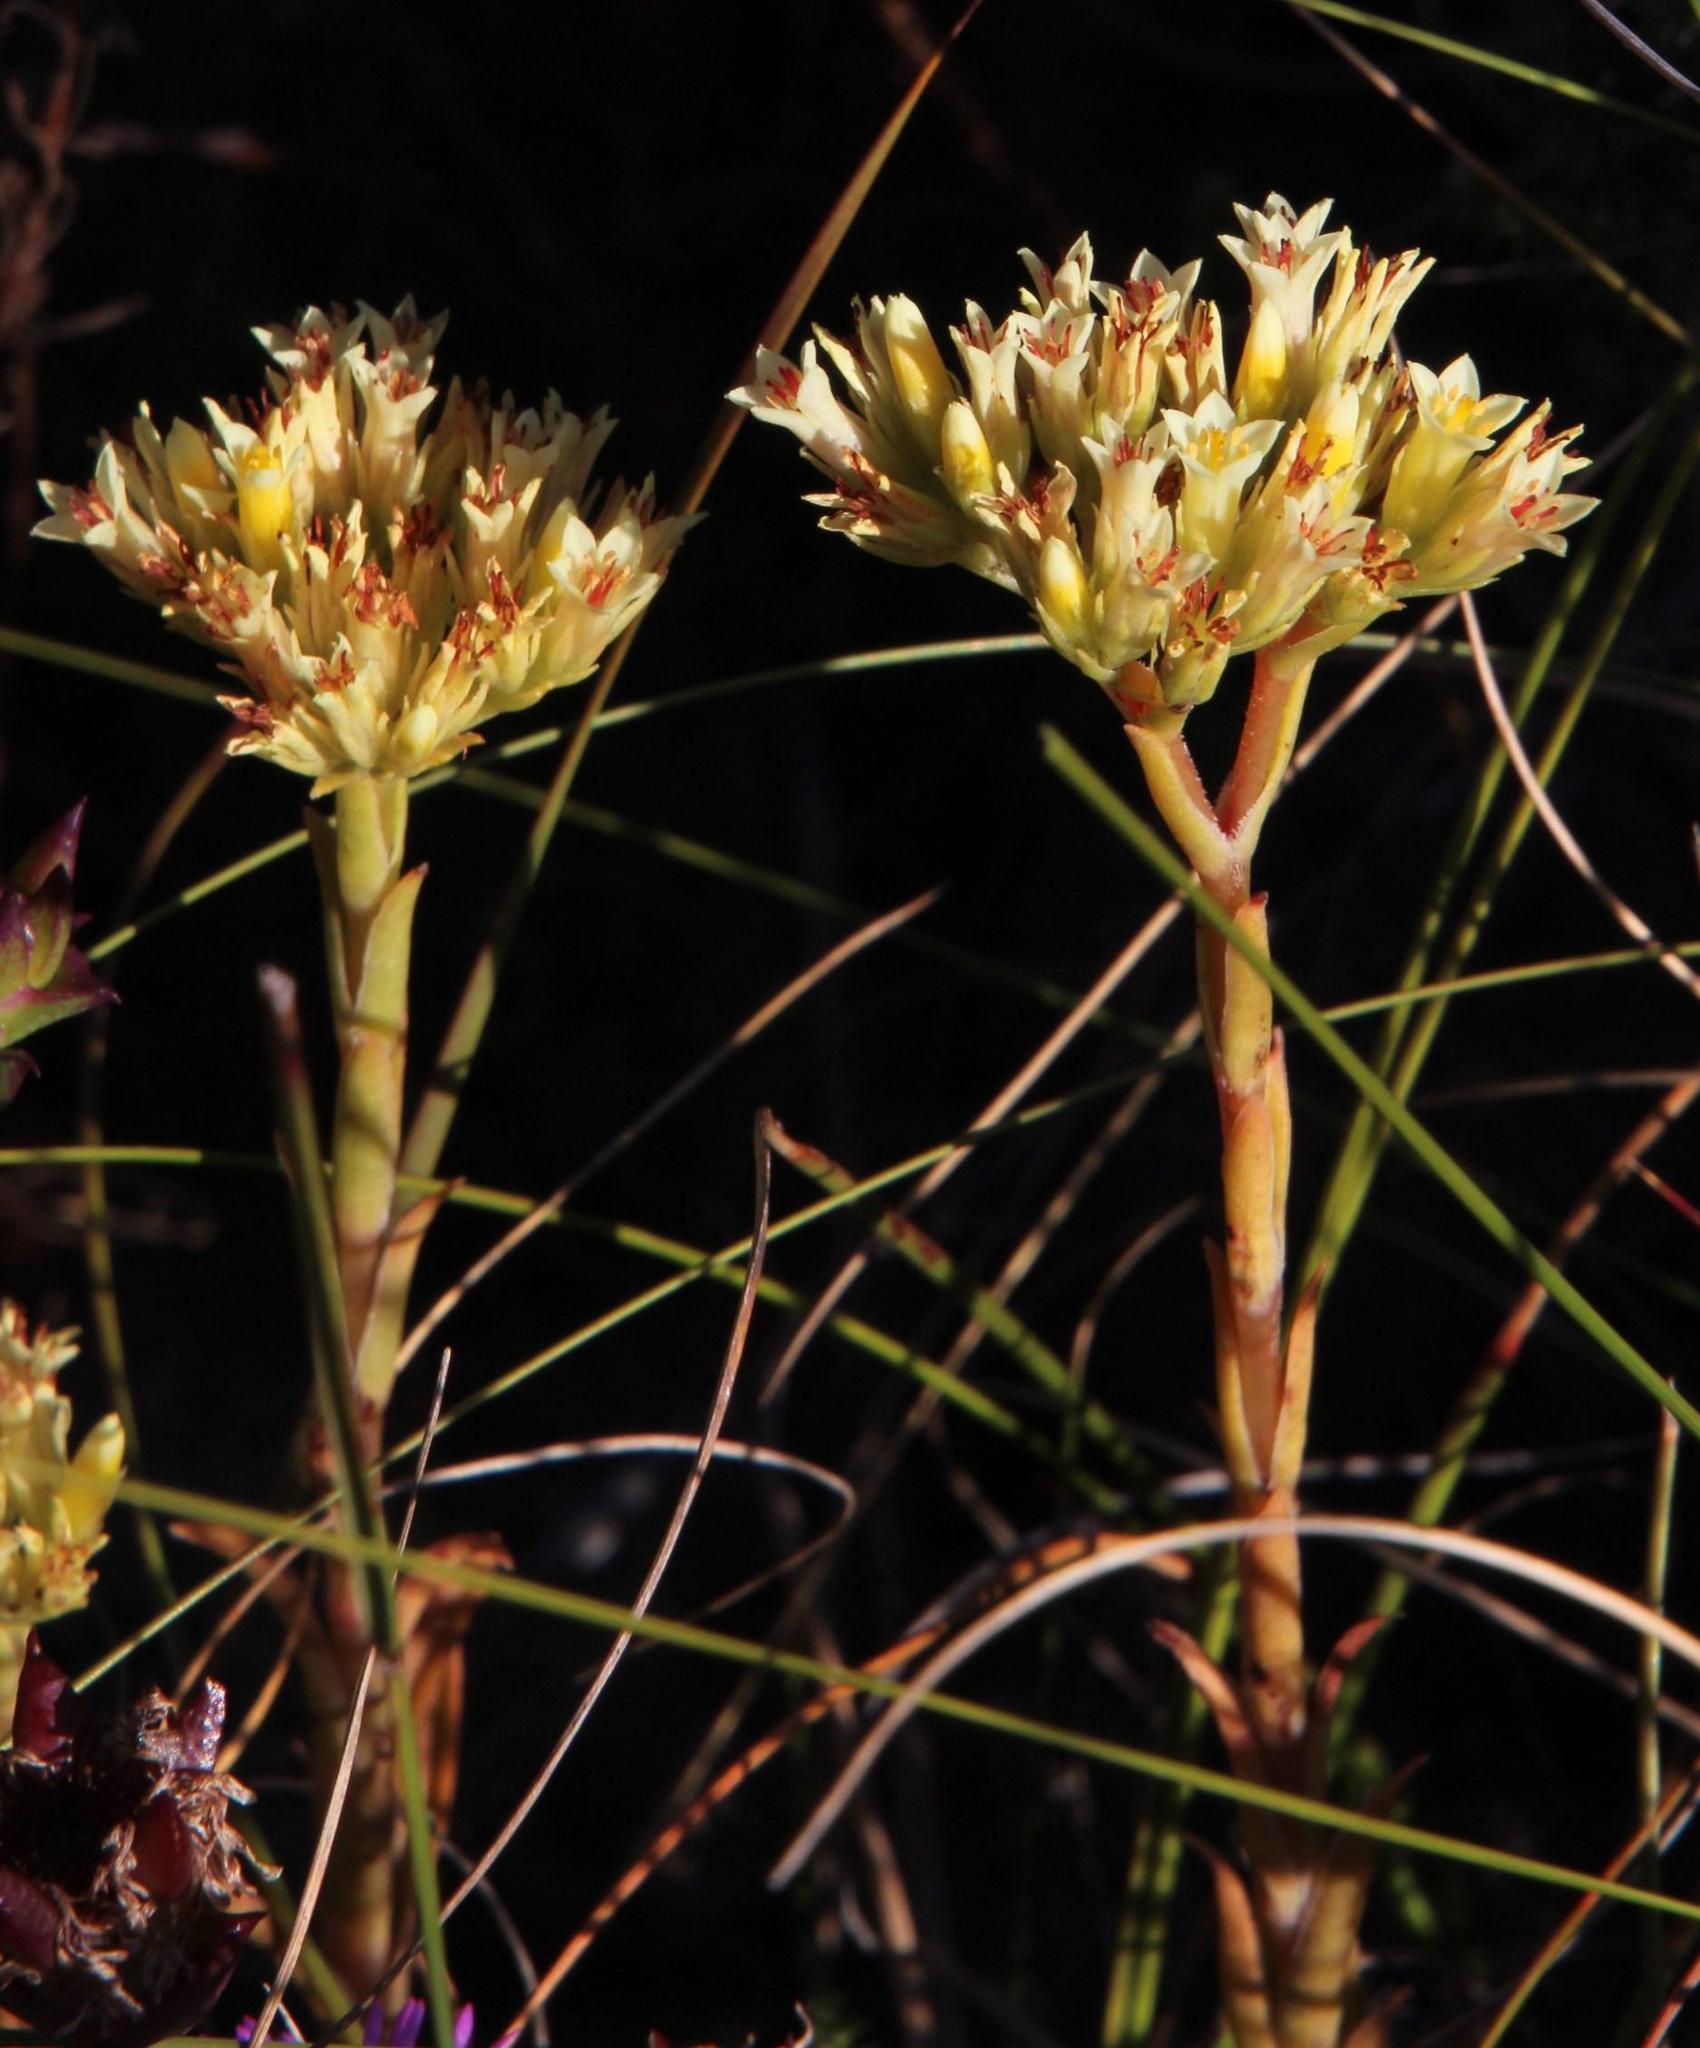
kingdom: Plantae
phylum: Tracheophyta
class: Magnoliopsida
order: Saxifragales
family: Crassulaceae
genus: Crassula
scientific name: Crassula flava
